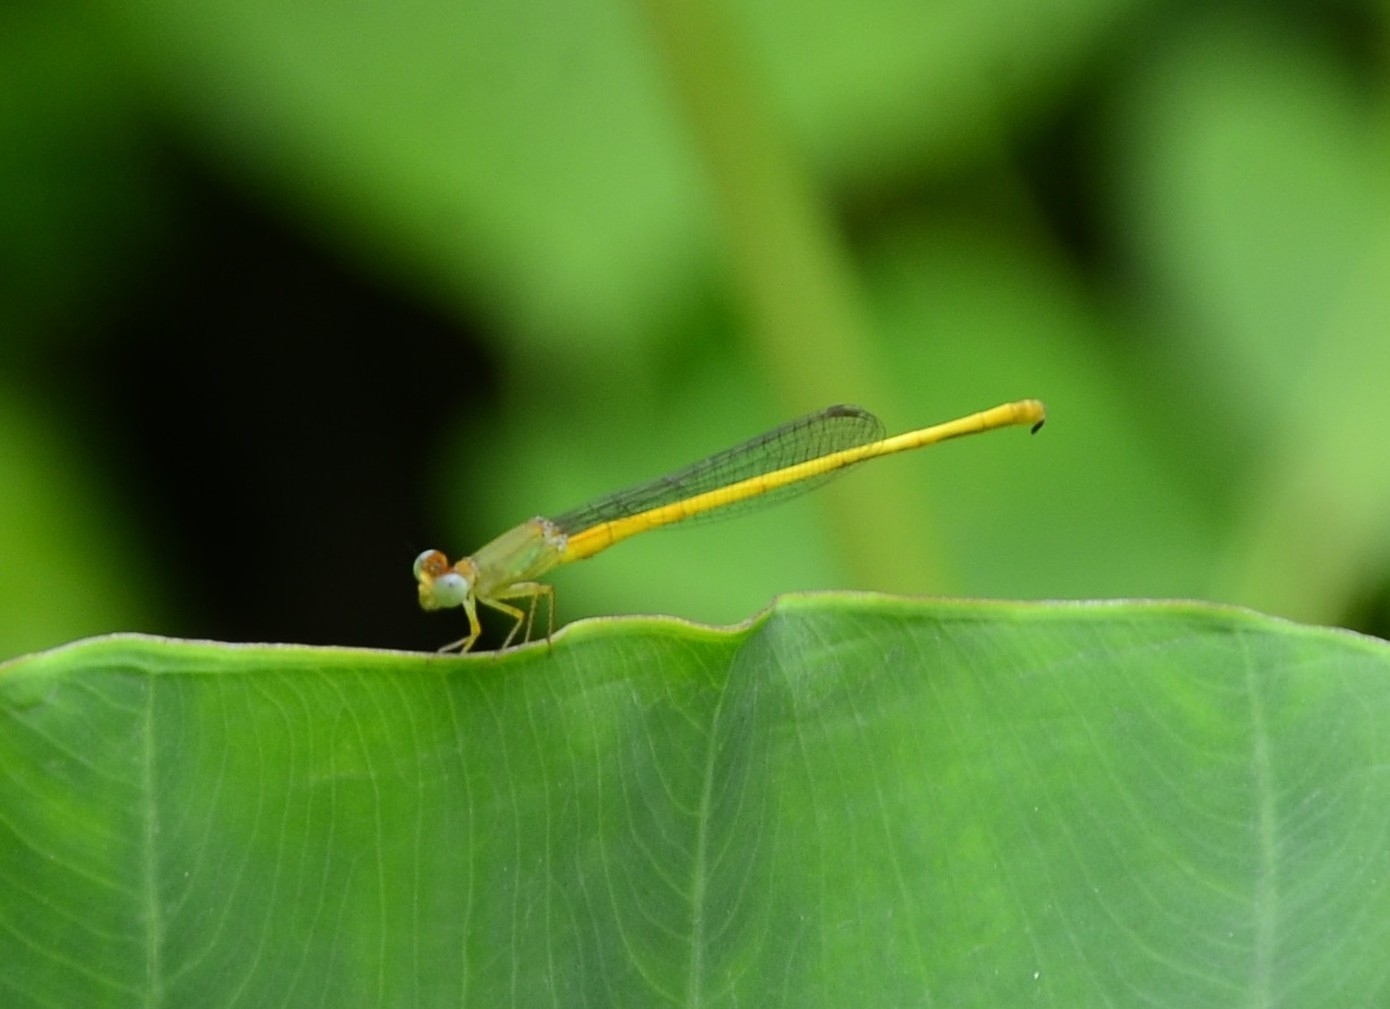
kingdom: Animalia
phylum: Arthropoda
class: Insecta
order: Odonata
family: Coenagrionidae
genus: Ceriagrion
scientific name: Ceriagrion coromandelianum
